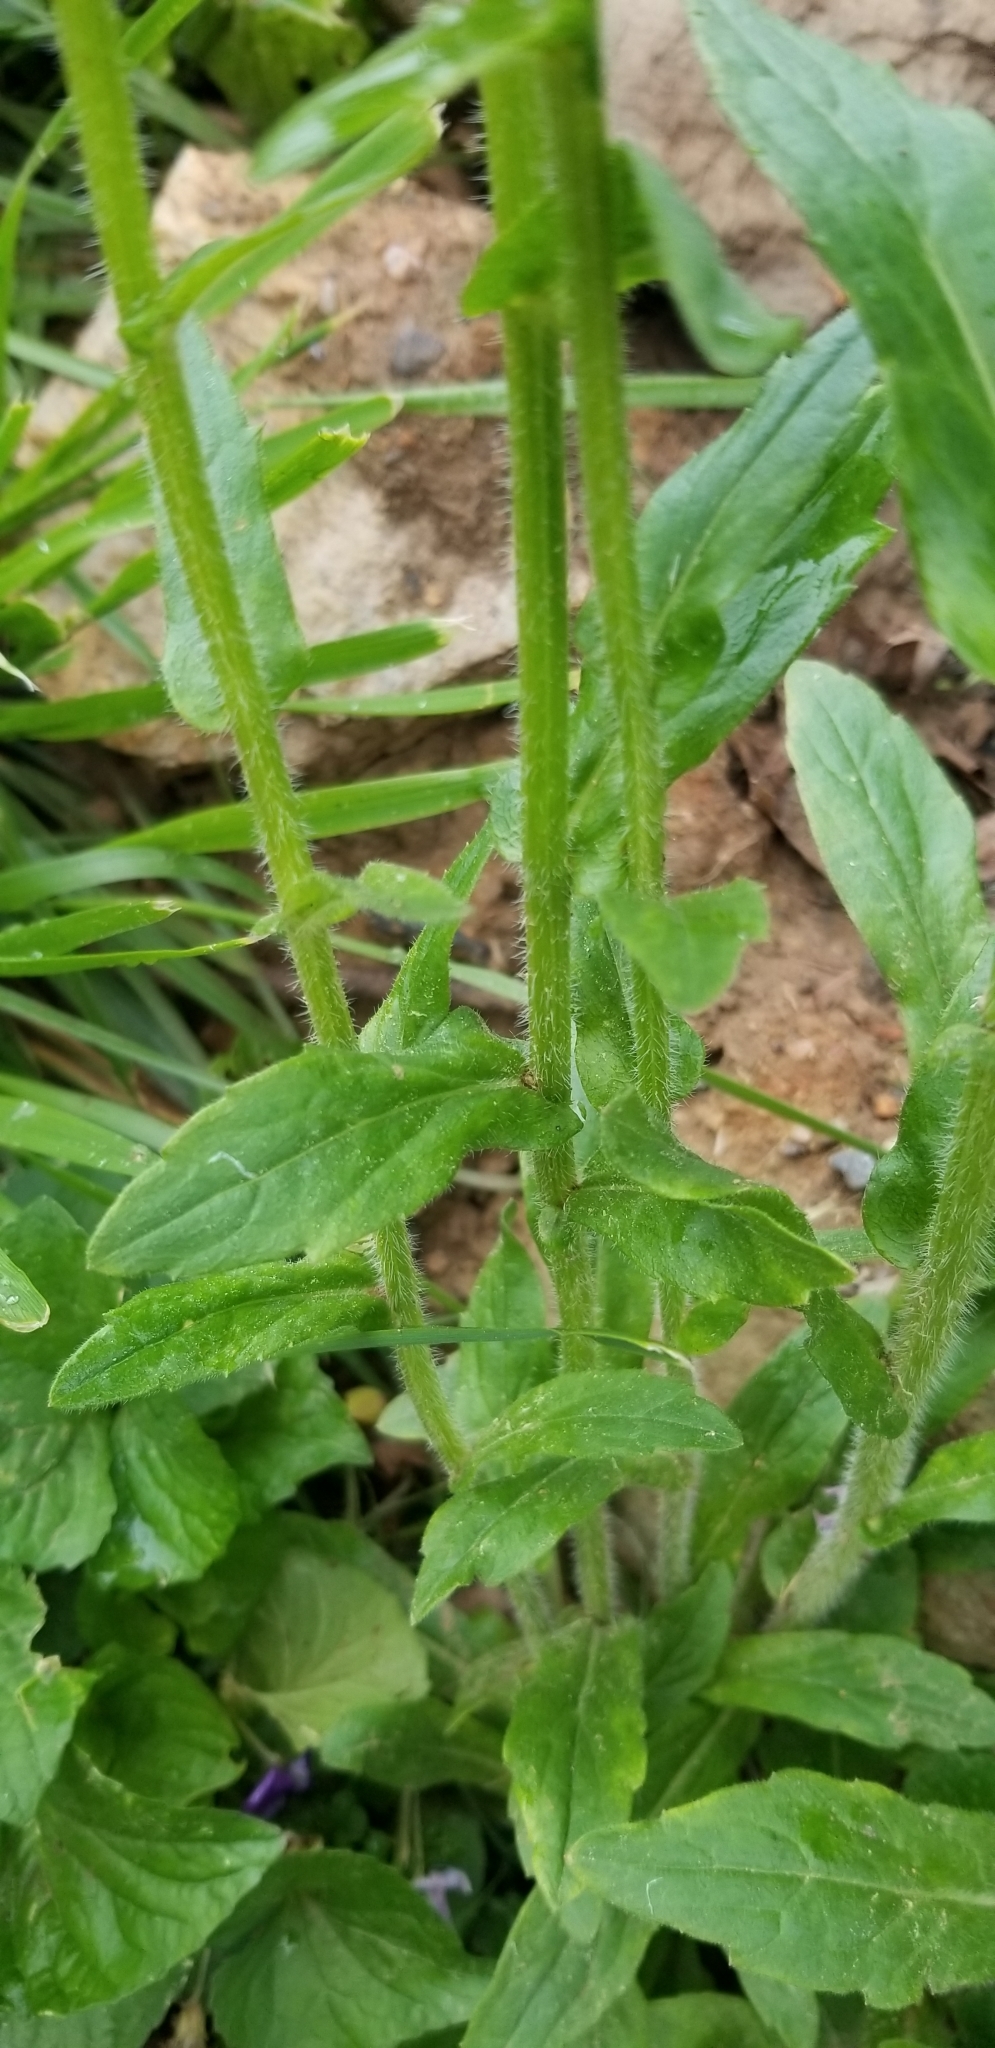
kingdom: Plantae
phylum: Tracheophyta
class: Magnoliopsida
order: Asterales
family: Asteraceae
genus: Erigeron
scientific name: Erigeron philadelphicus
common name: Robin's-plantain
